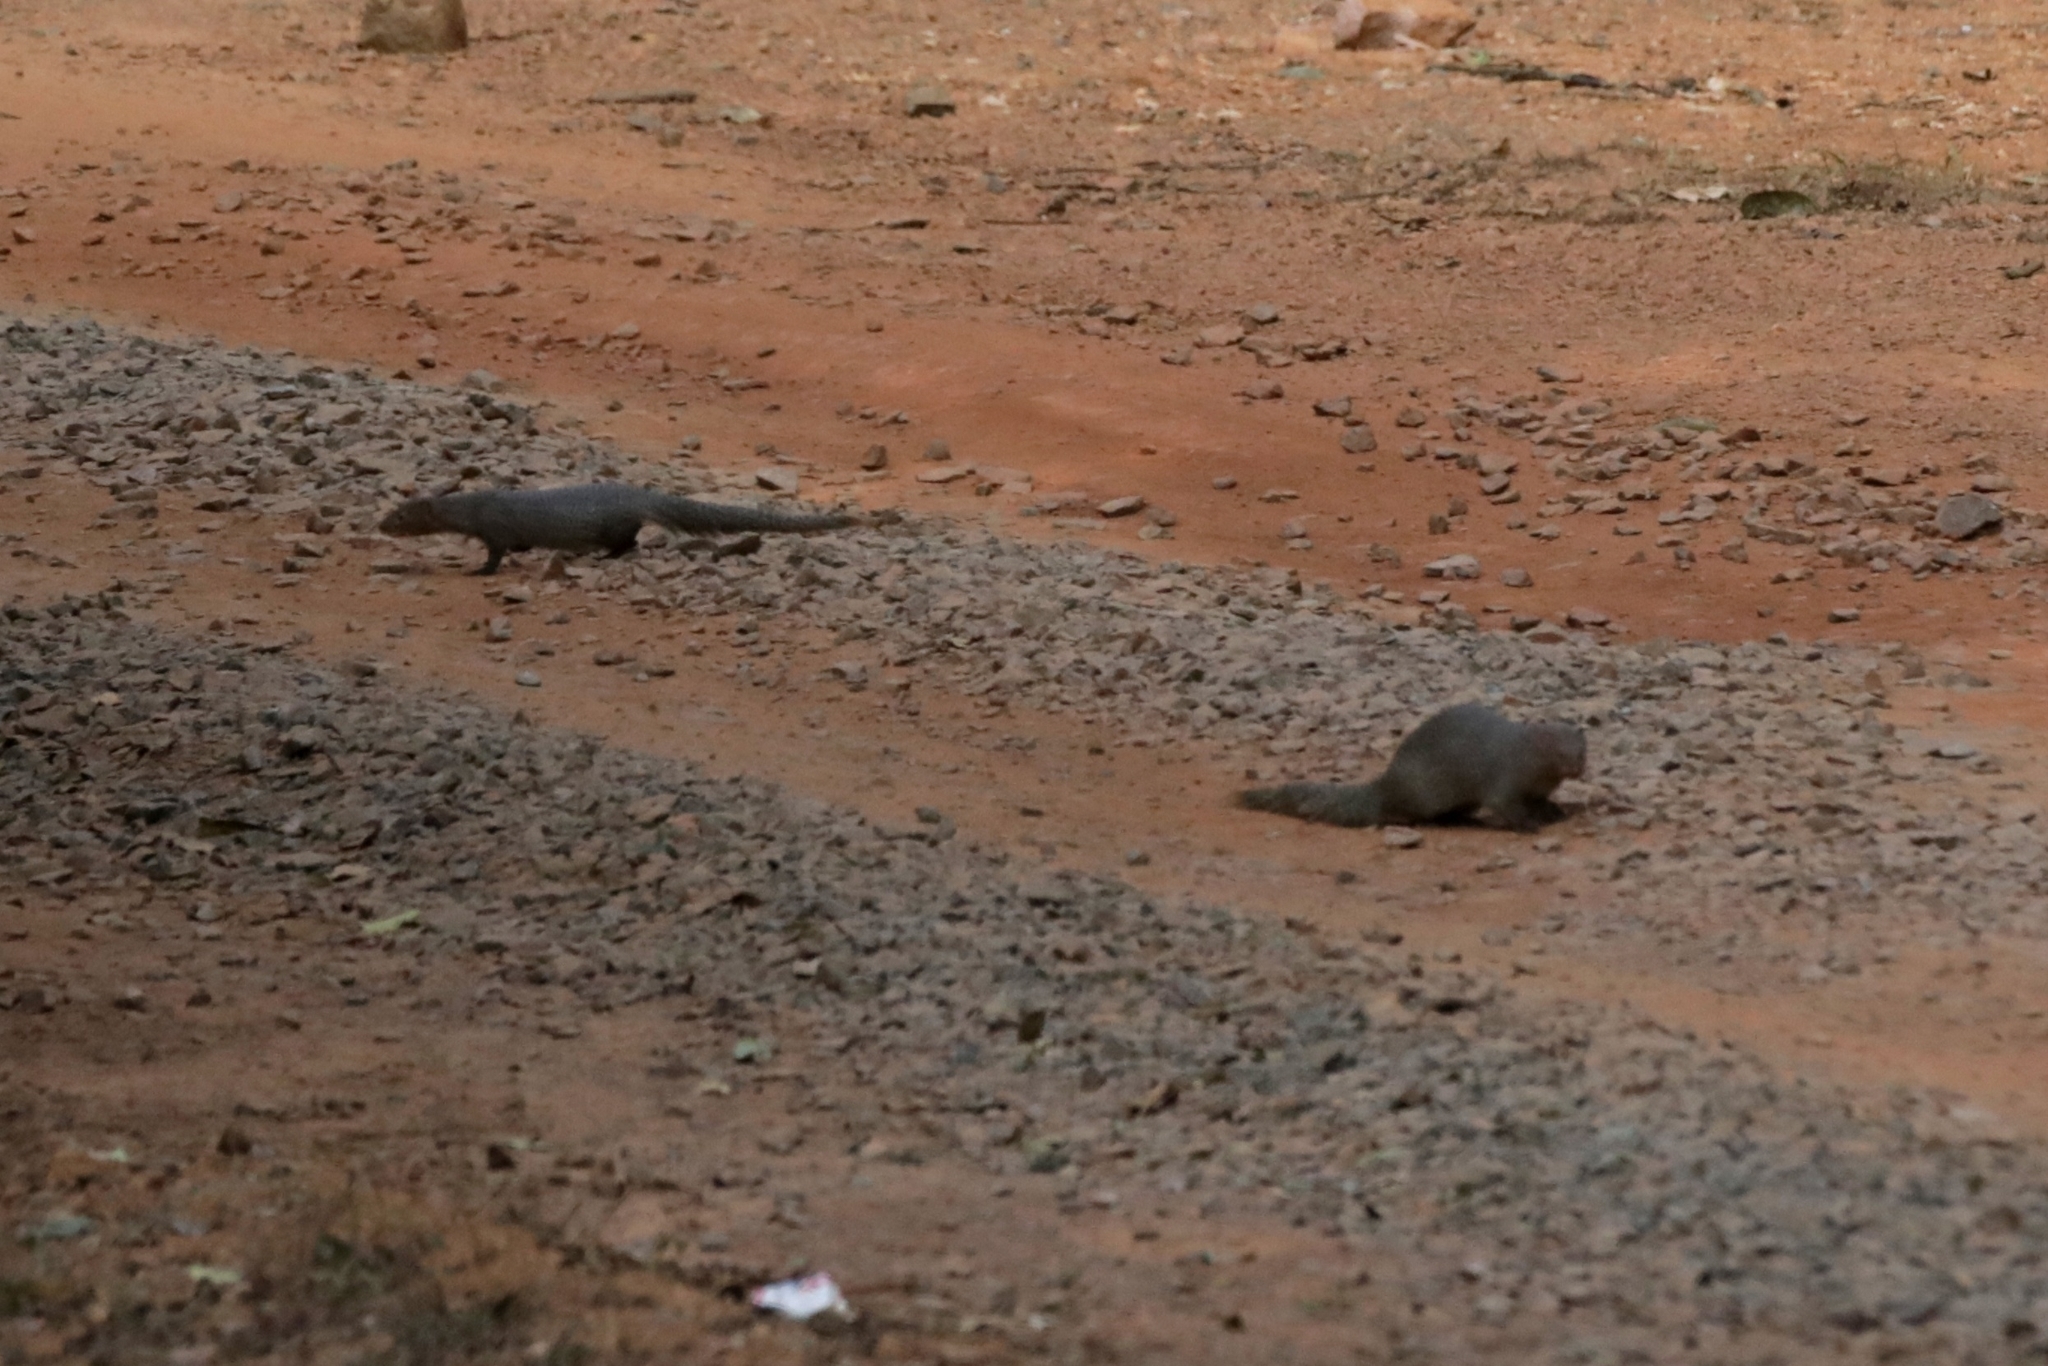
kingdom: Animalia
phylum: Chordata
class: Mammalia
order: Carnivora
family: Herpestidae
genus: Herpestes
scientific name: Herpestes edwardsi
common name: Indian gray mongoose
